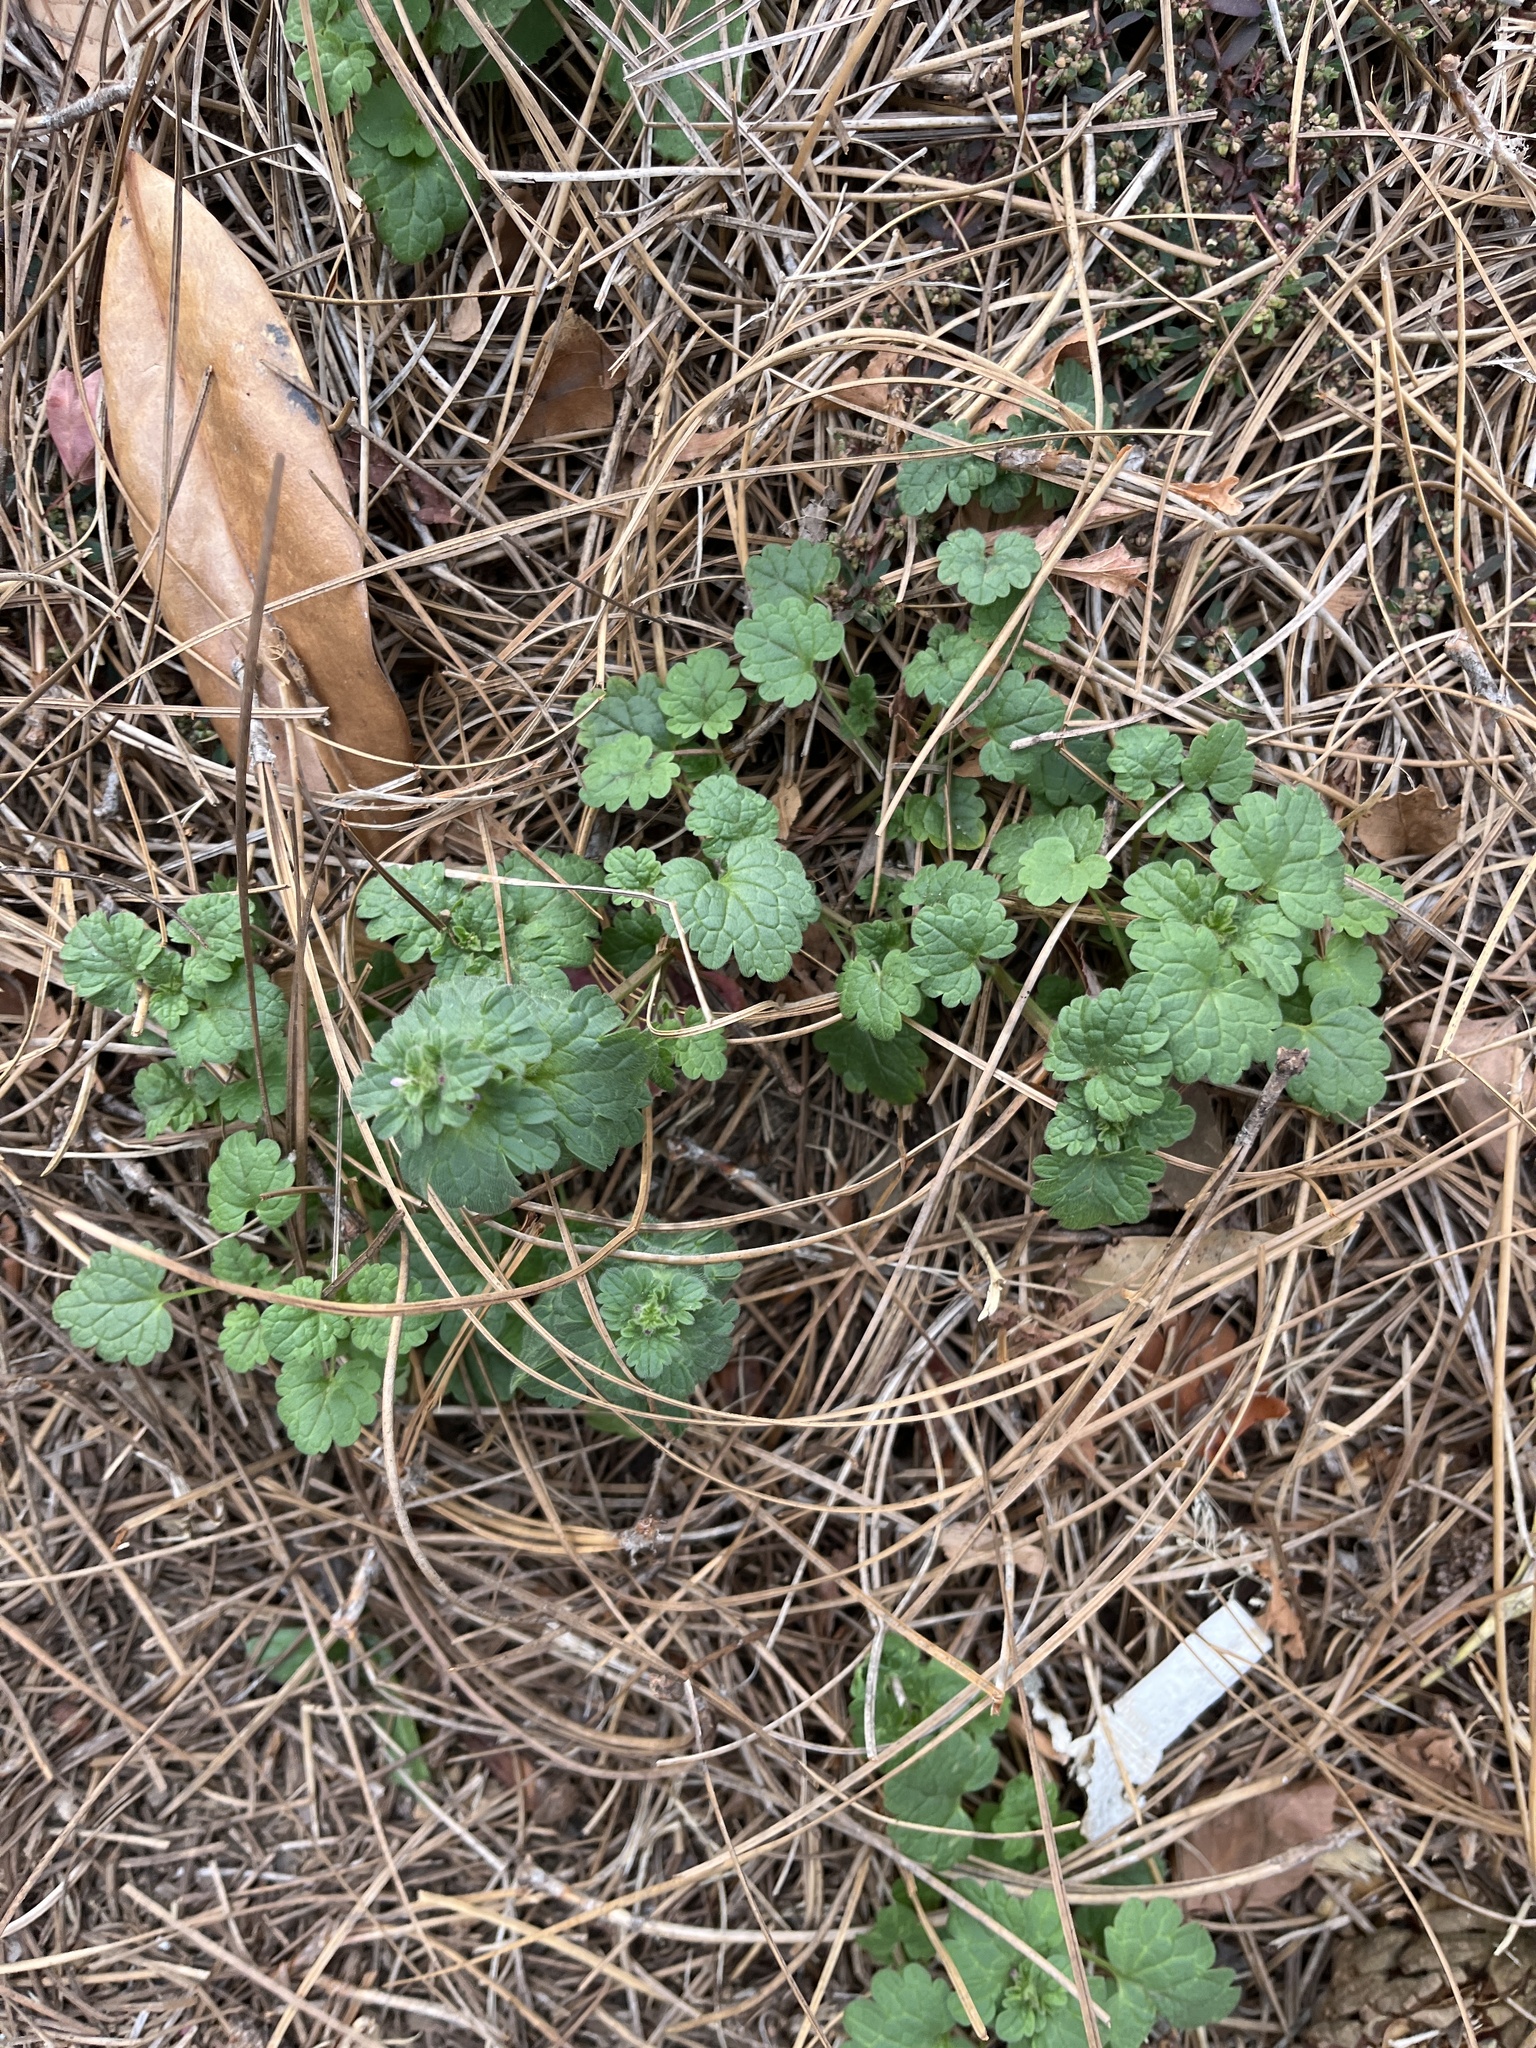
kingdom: Plantae
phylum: Tracheophyta
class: Magnoliopsida
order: Lamiales
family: Lamiaceae
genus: Lamium
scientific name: Lamium amplexicaule
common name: Henbit dead-nettle
